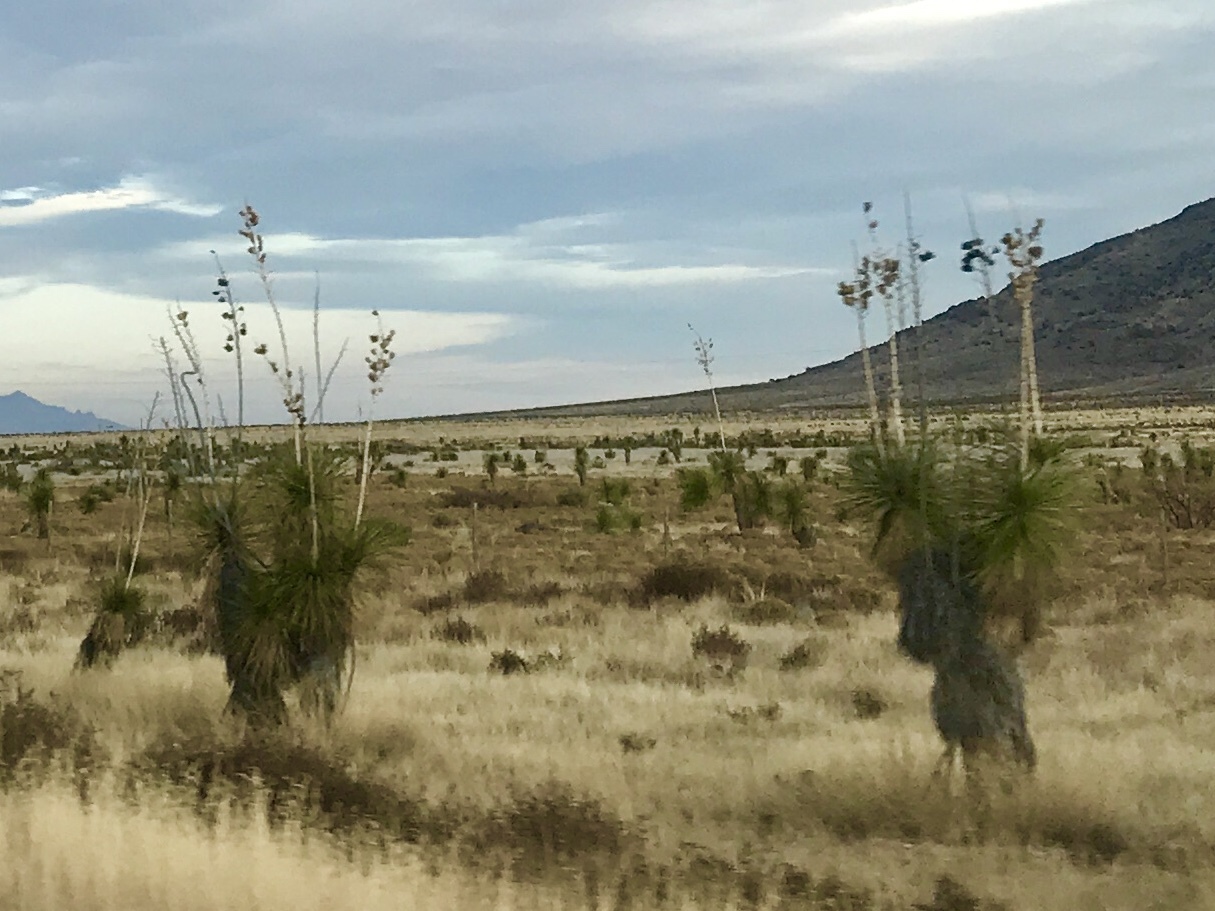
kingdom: Plantae
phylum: Tracheophyta
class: Liliopsida
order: Asparagales
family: Asparagaceae
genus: Yucca
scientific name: Yucca elata
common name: Palmella
